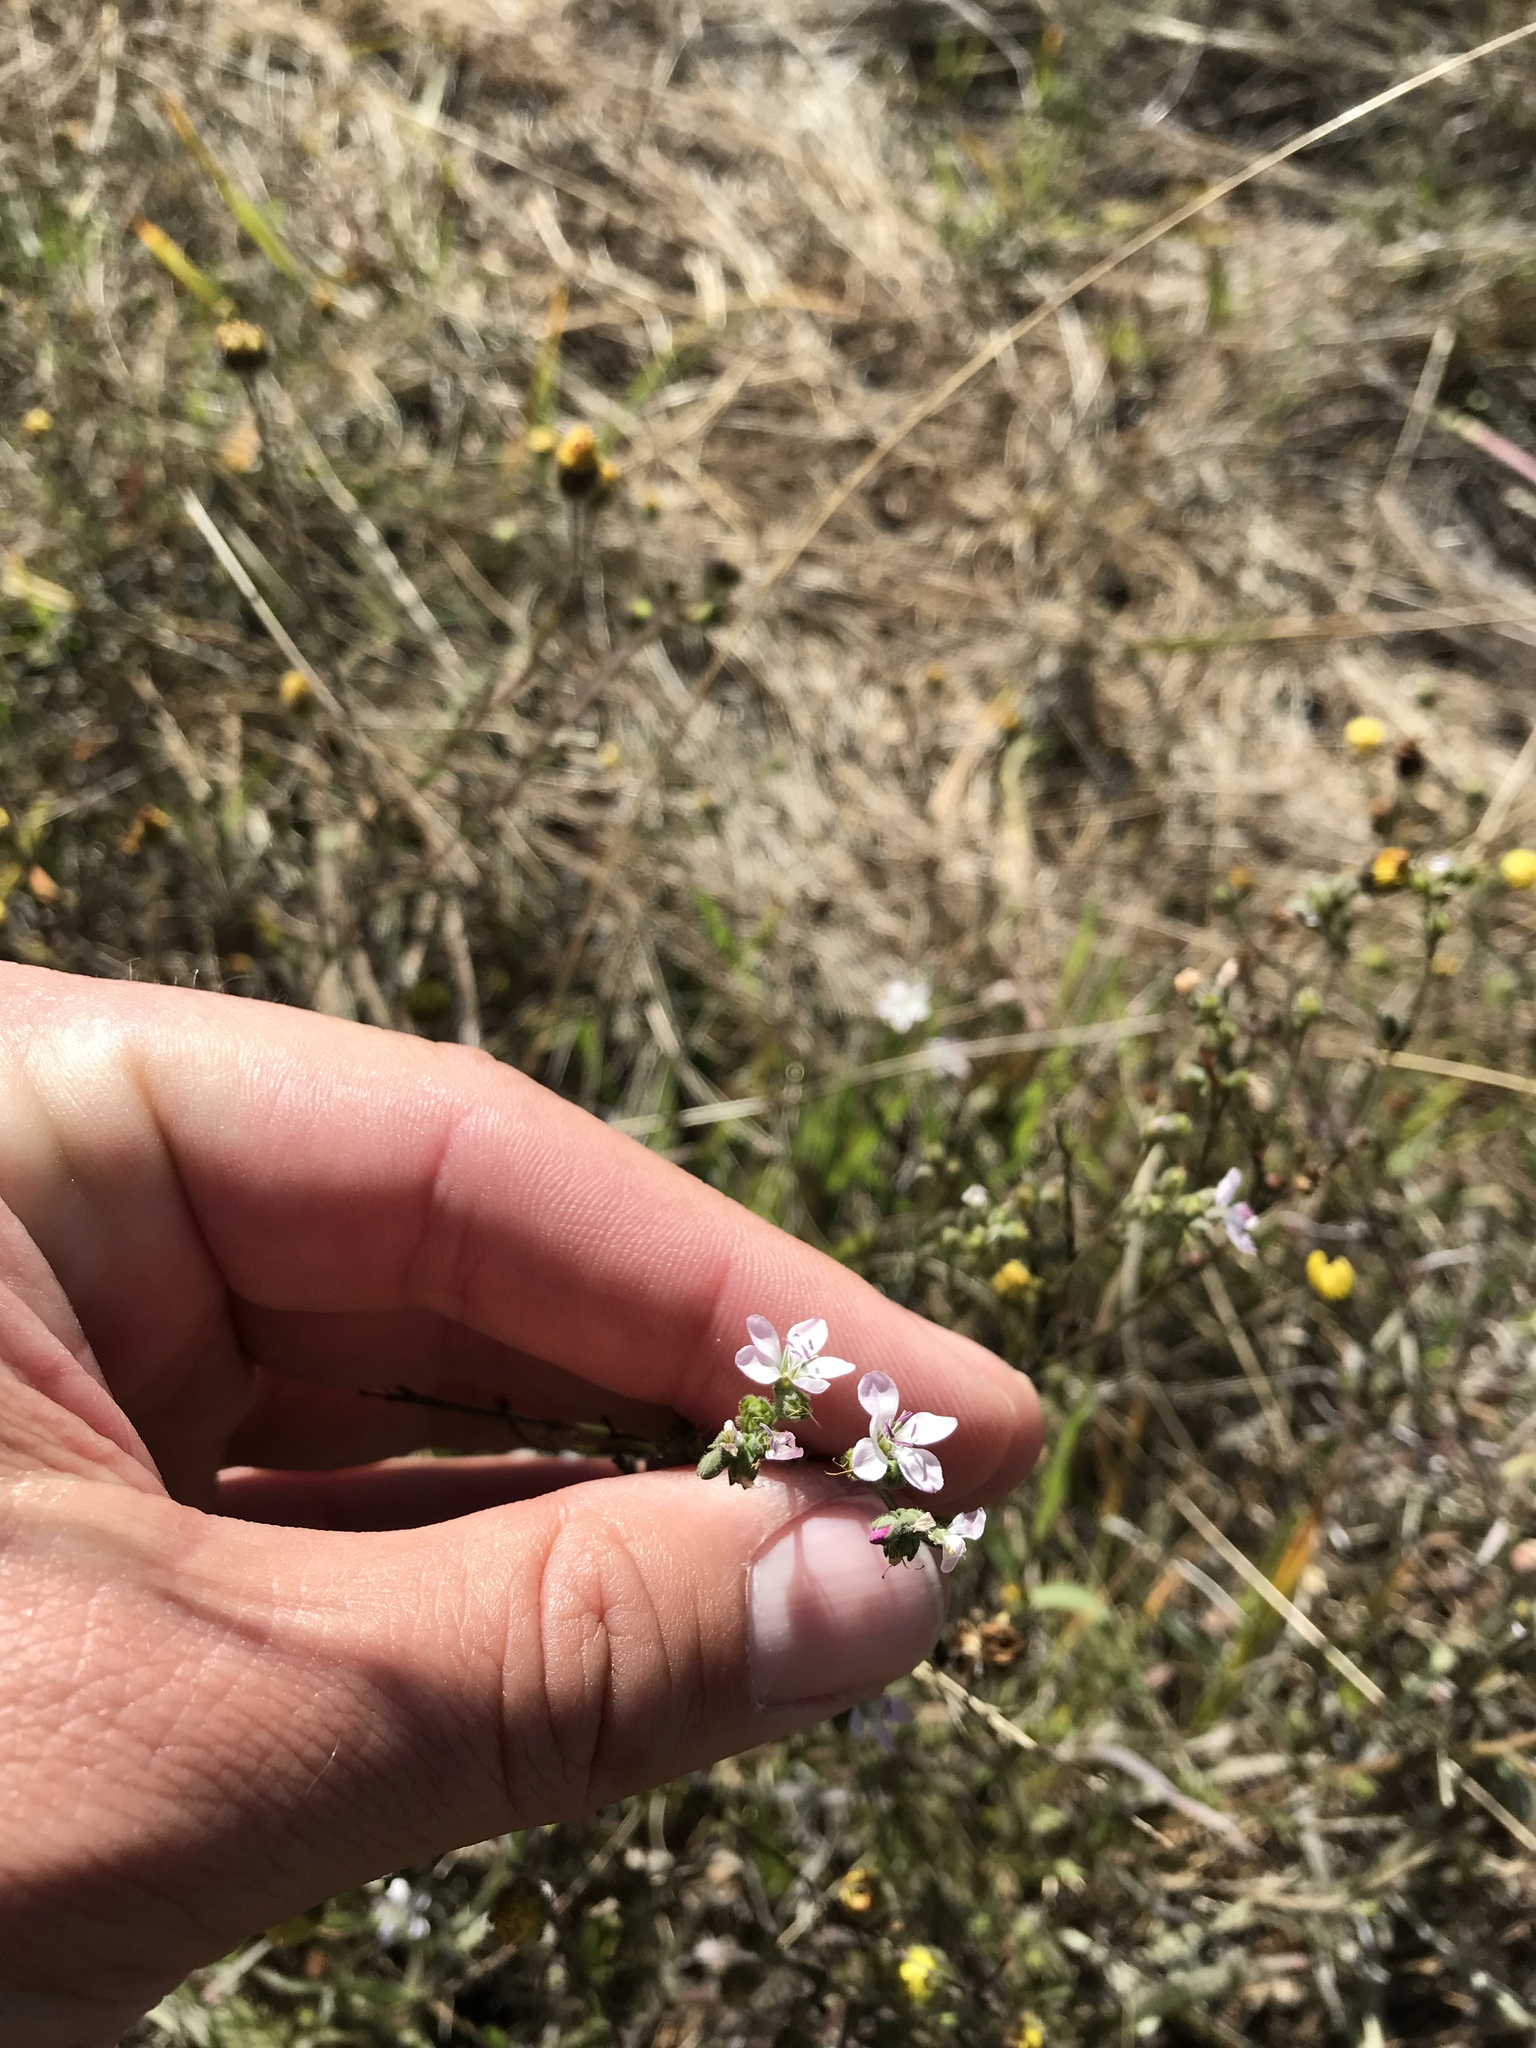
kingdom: Plantae
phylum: Tracheophyta
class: Magnoliopsida
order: Malpighiales
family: Linaceae
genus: Hesperolinon
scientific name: Hesperolinon congestum
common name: Marin dwarf-flax
